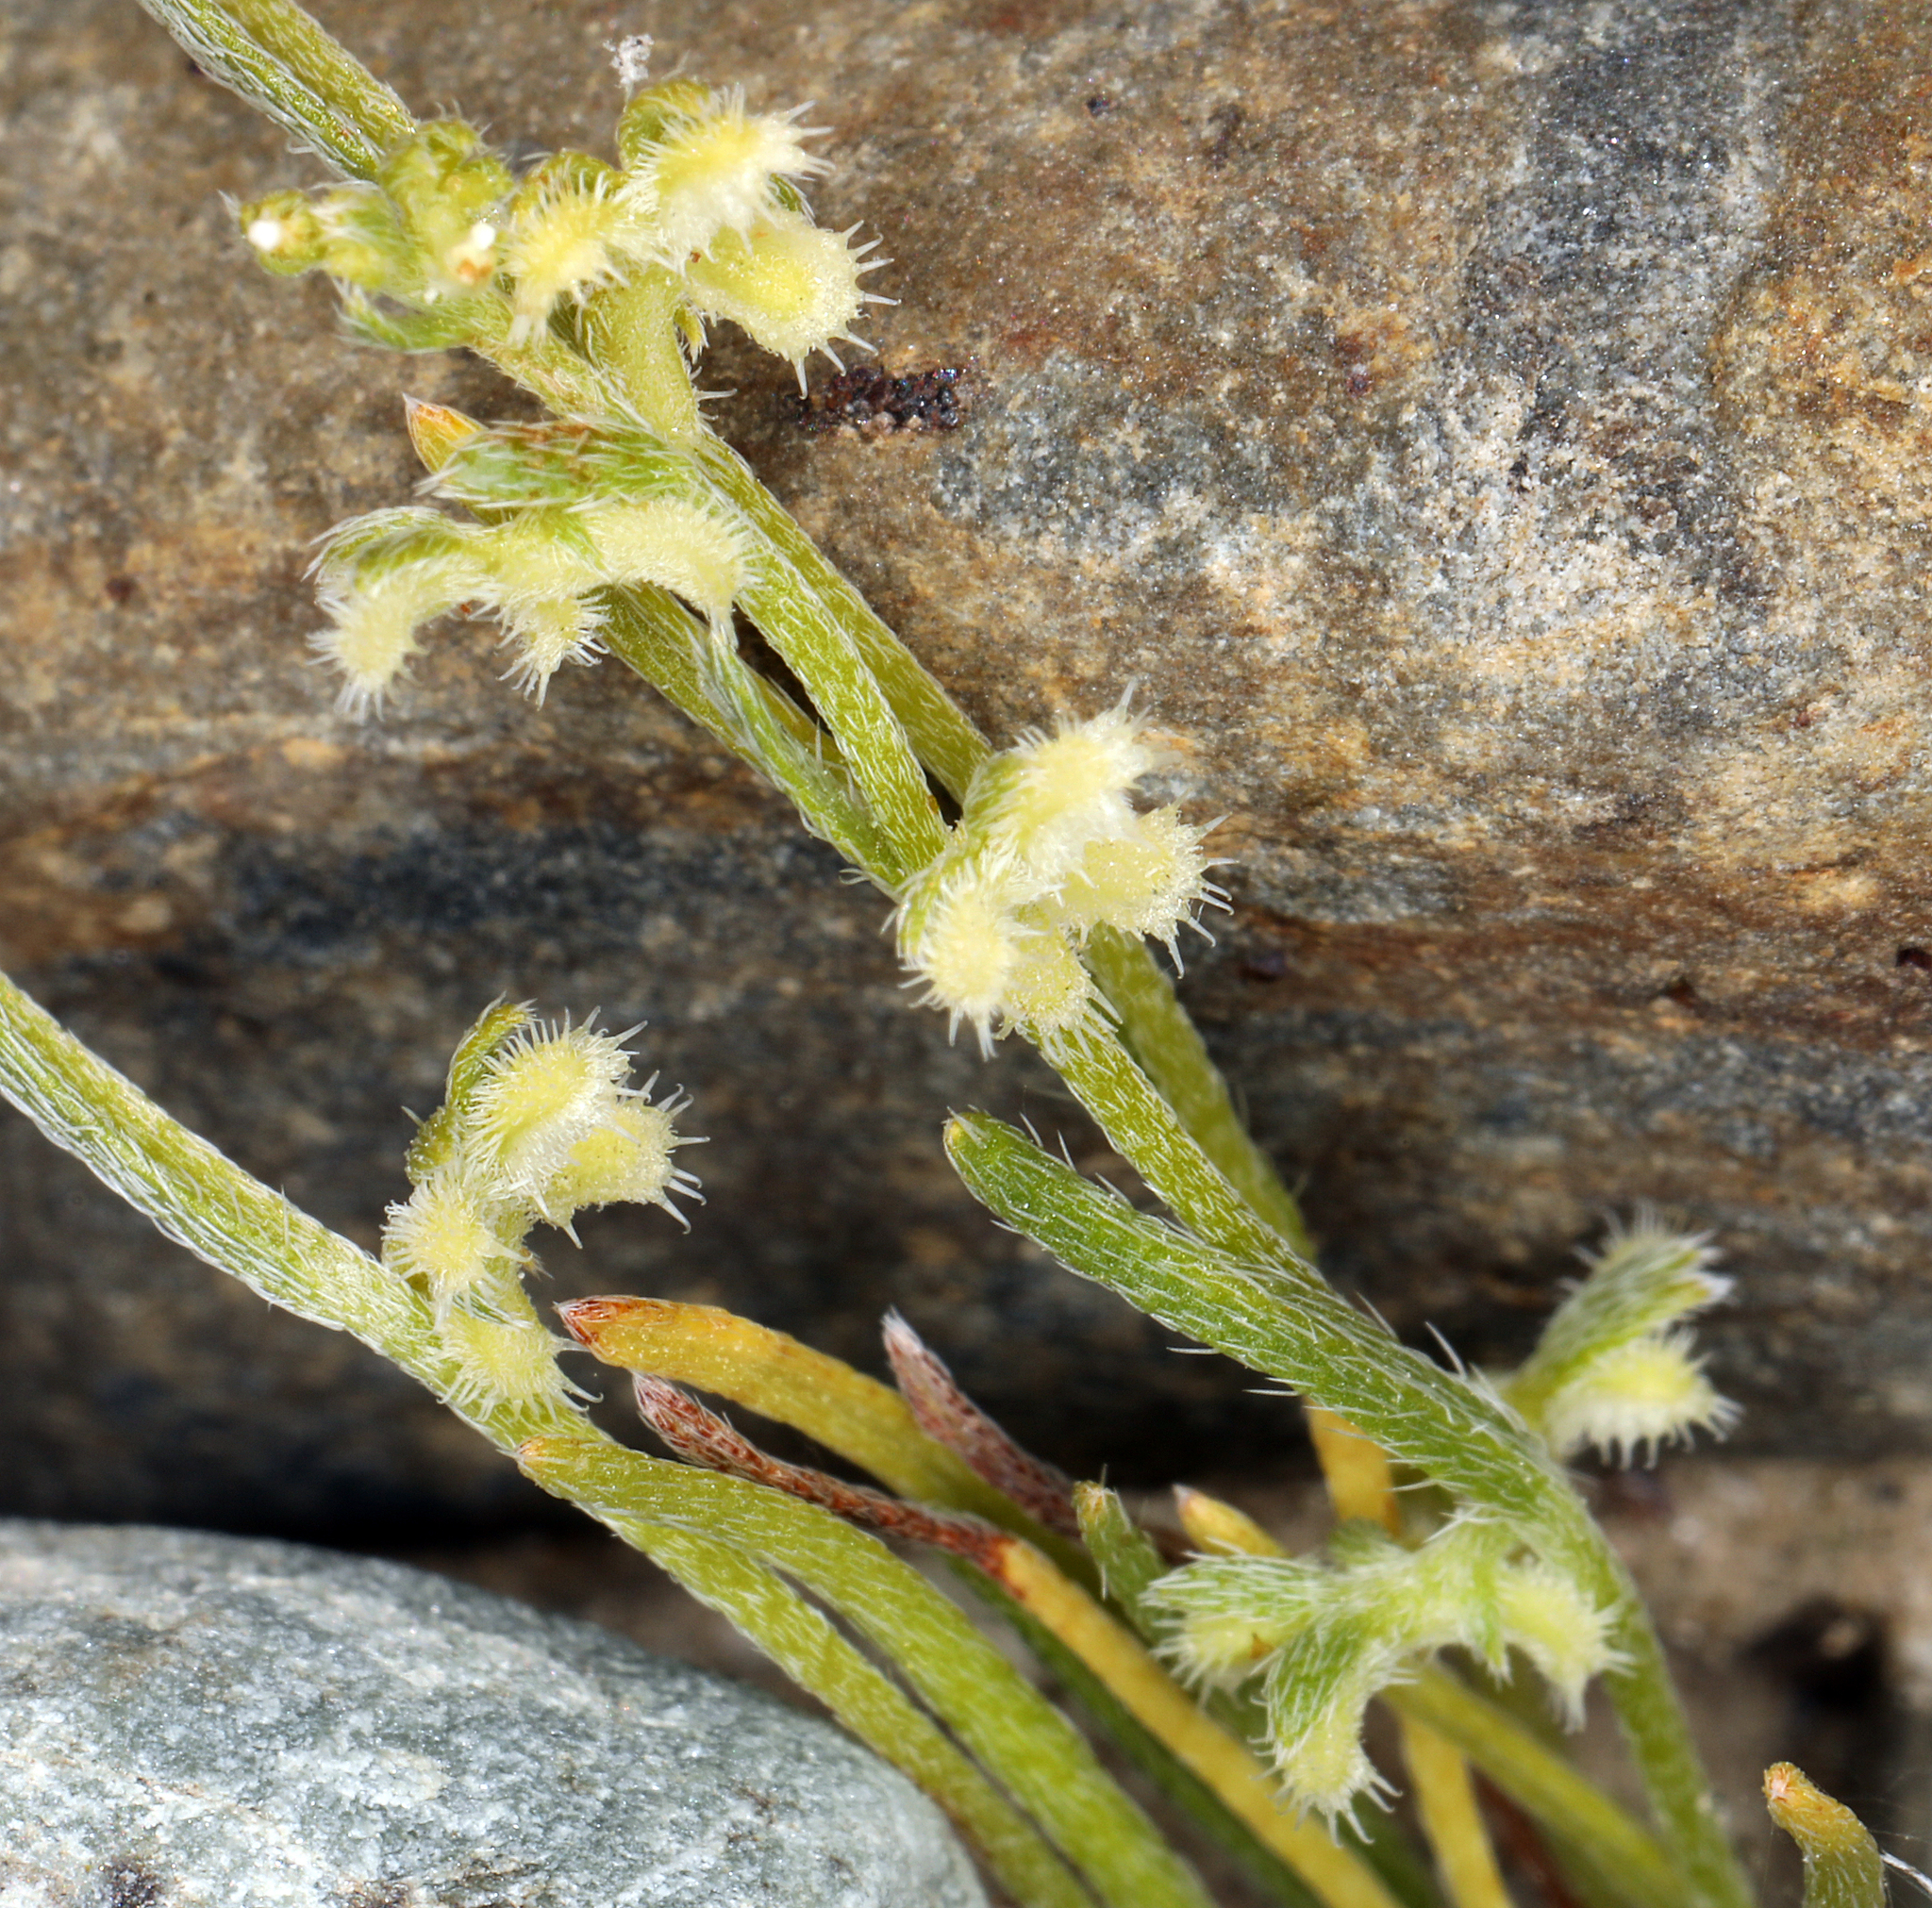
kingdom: Plantae
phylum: Tracheophyta
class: Magnoliopsida
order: Boraginales
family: Boraginaceae
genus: Pectocarya
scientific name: Pectocarya heterocarpa
